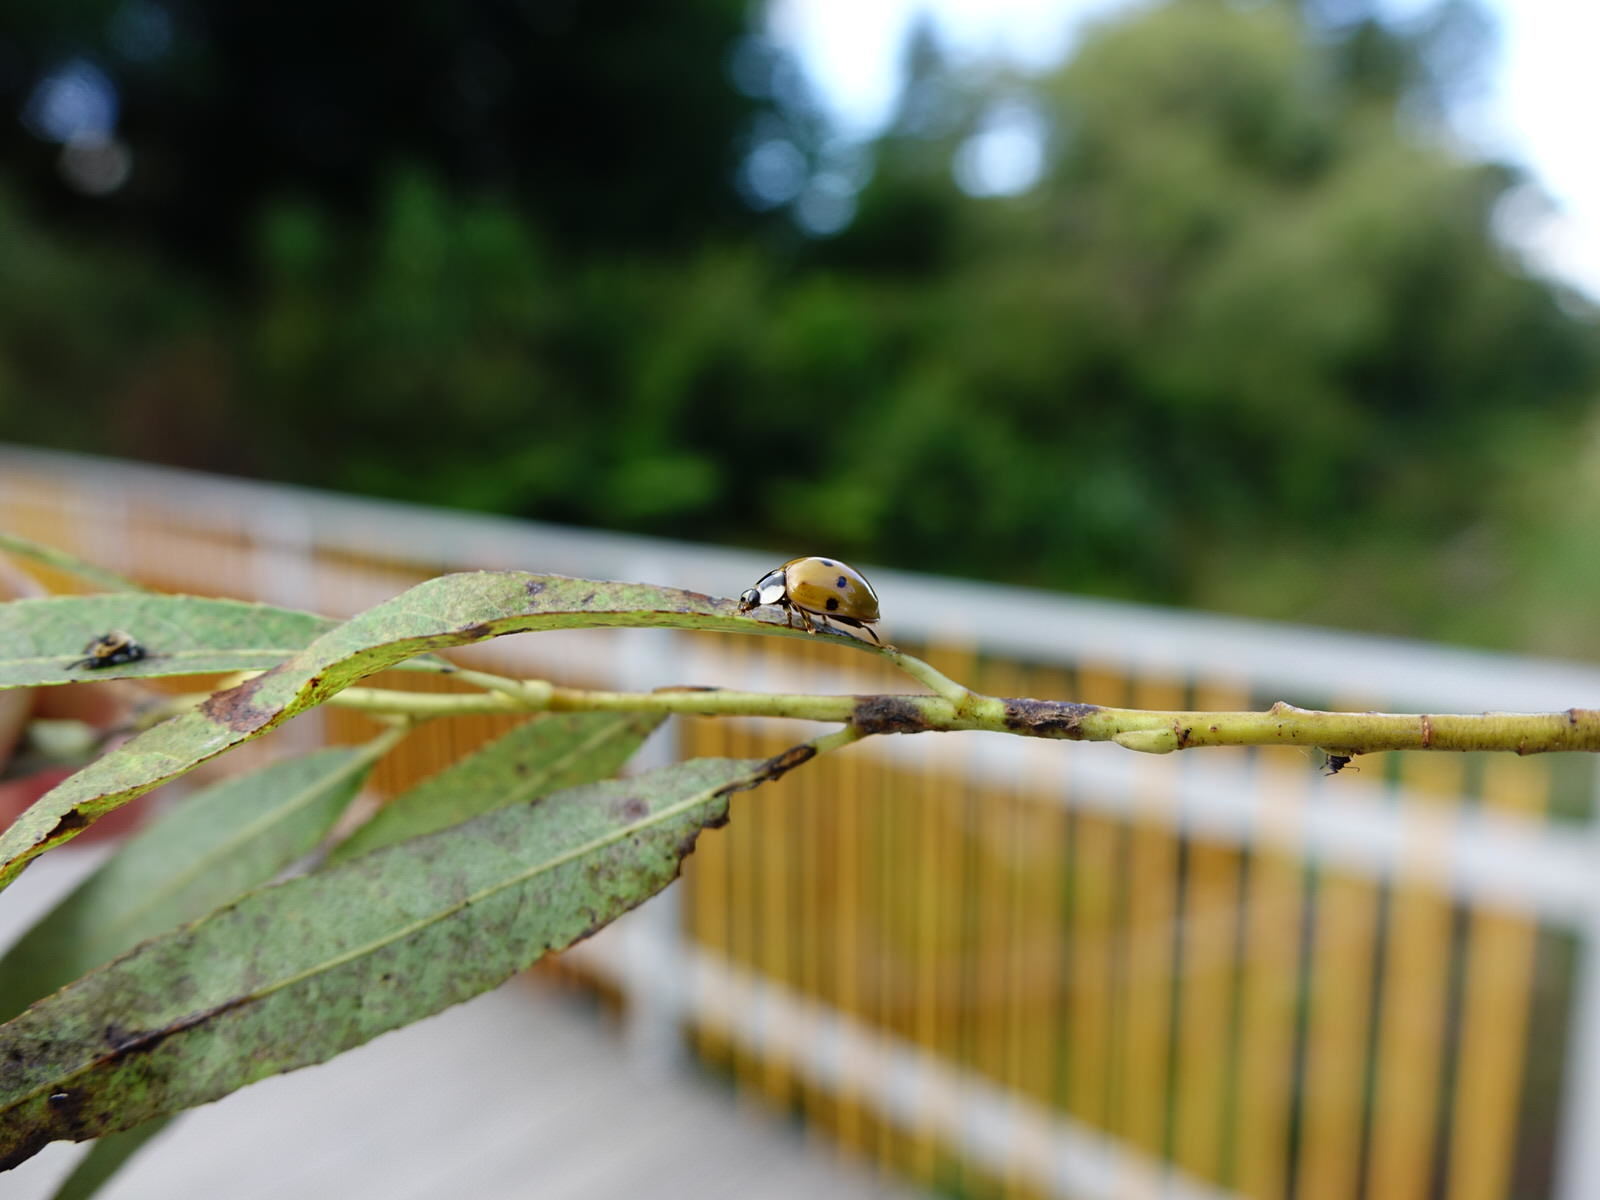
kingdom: Animalia
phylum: Arthropoda
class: Insecta
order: Coleoptera
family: Coccinellidae
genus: Harmonia
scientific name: Harmonia axyridis
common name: Harlequin ladybird
